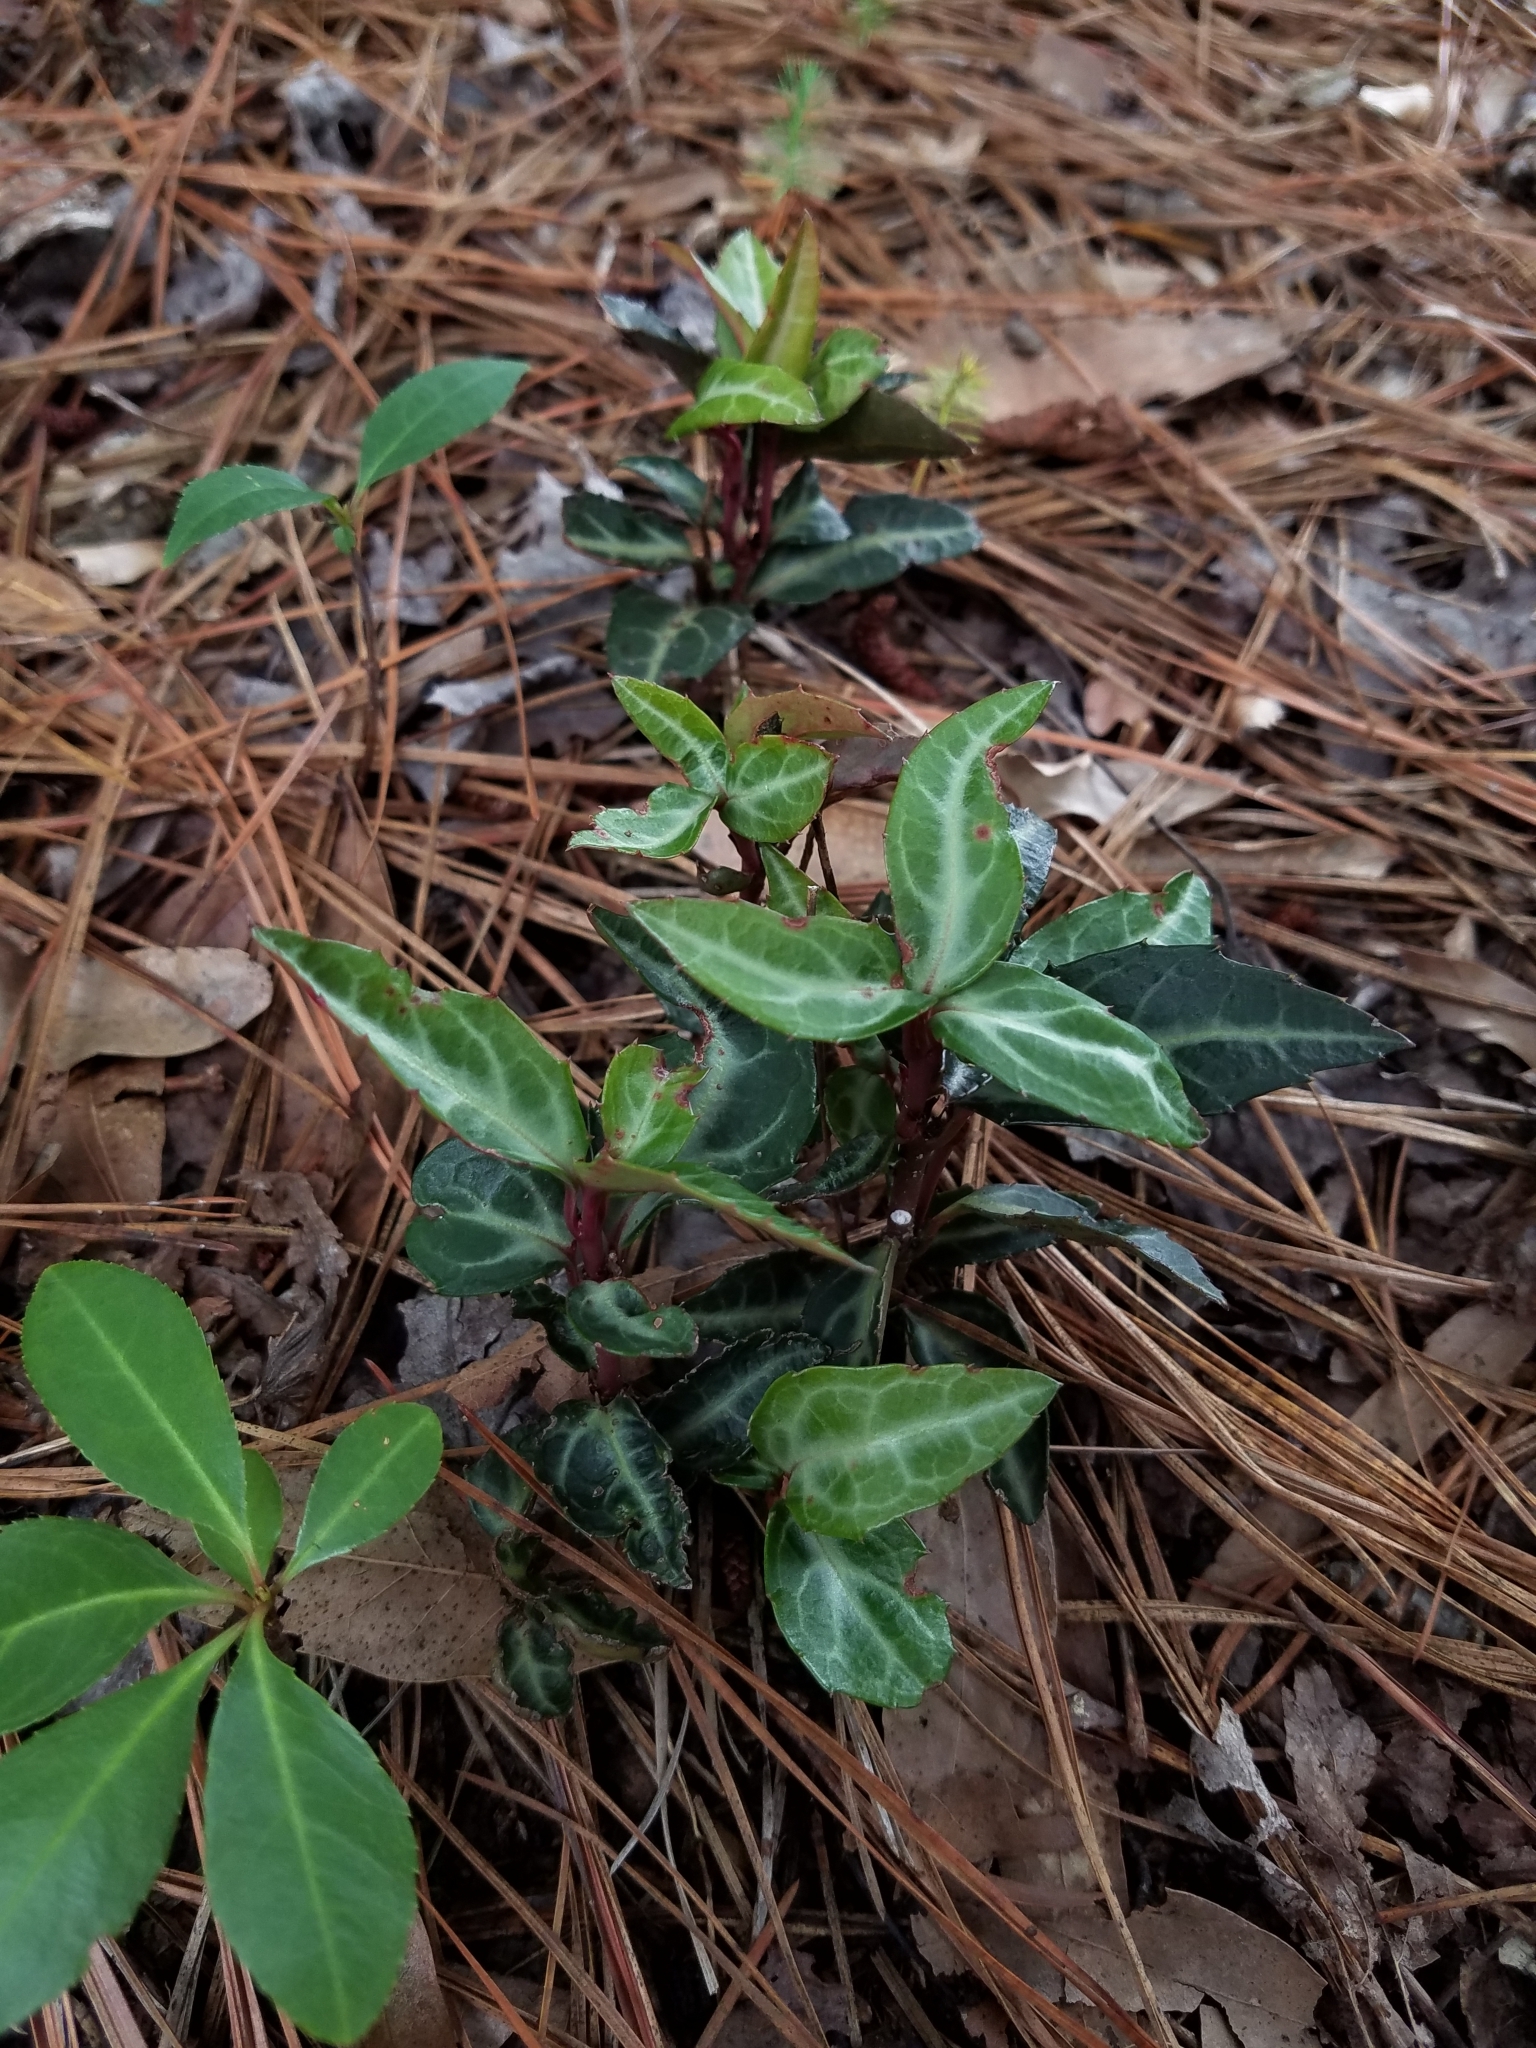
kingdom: Plantae
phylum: Tracheophyta
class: Magnoliopsida
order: Ericales
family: Ericaceae
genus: Chimaphila
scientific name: Chimaphila maculata
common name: Spotted pipsissewa
